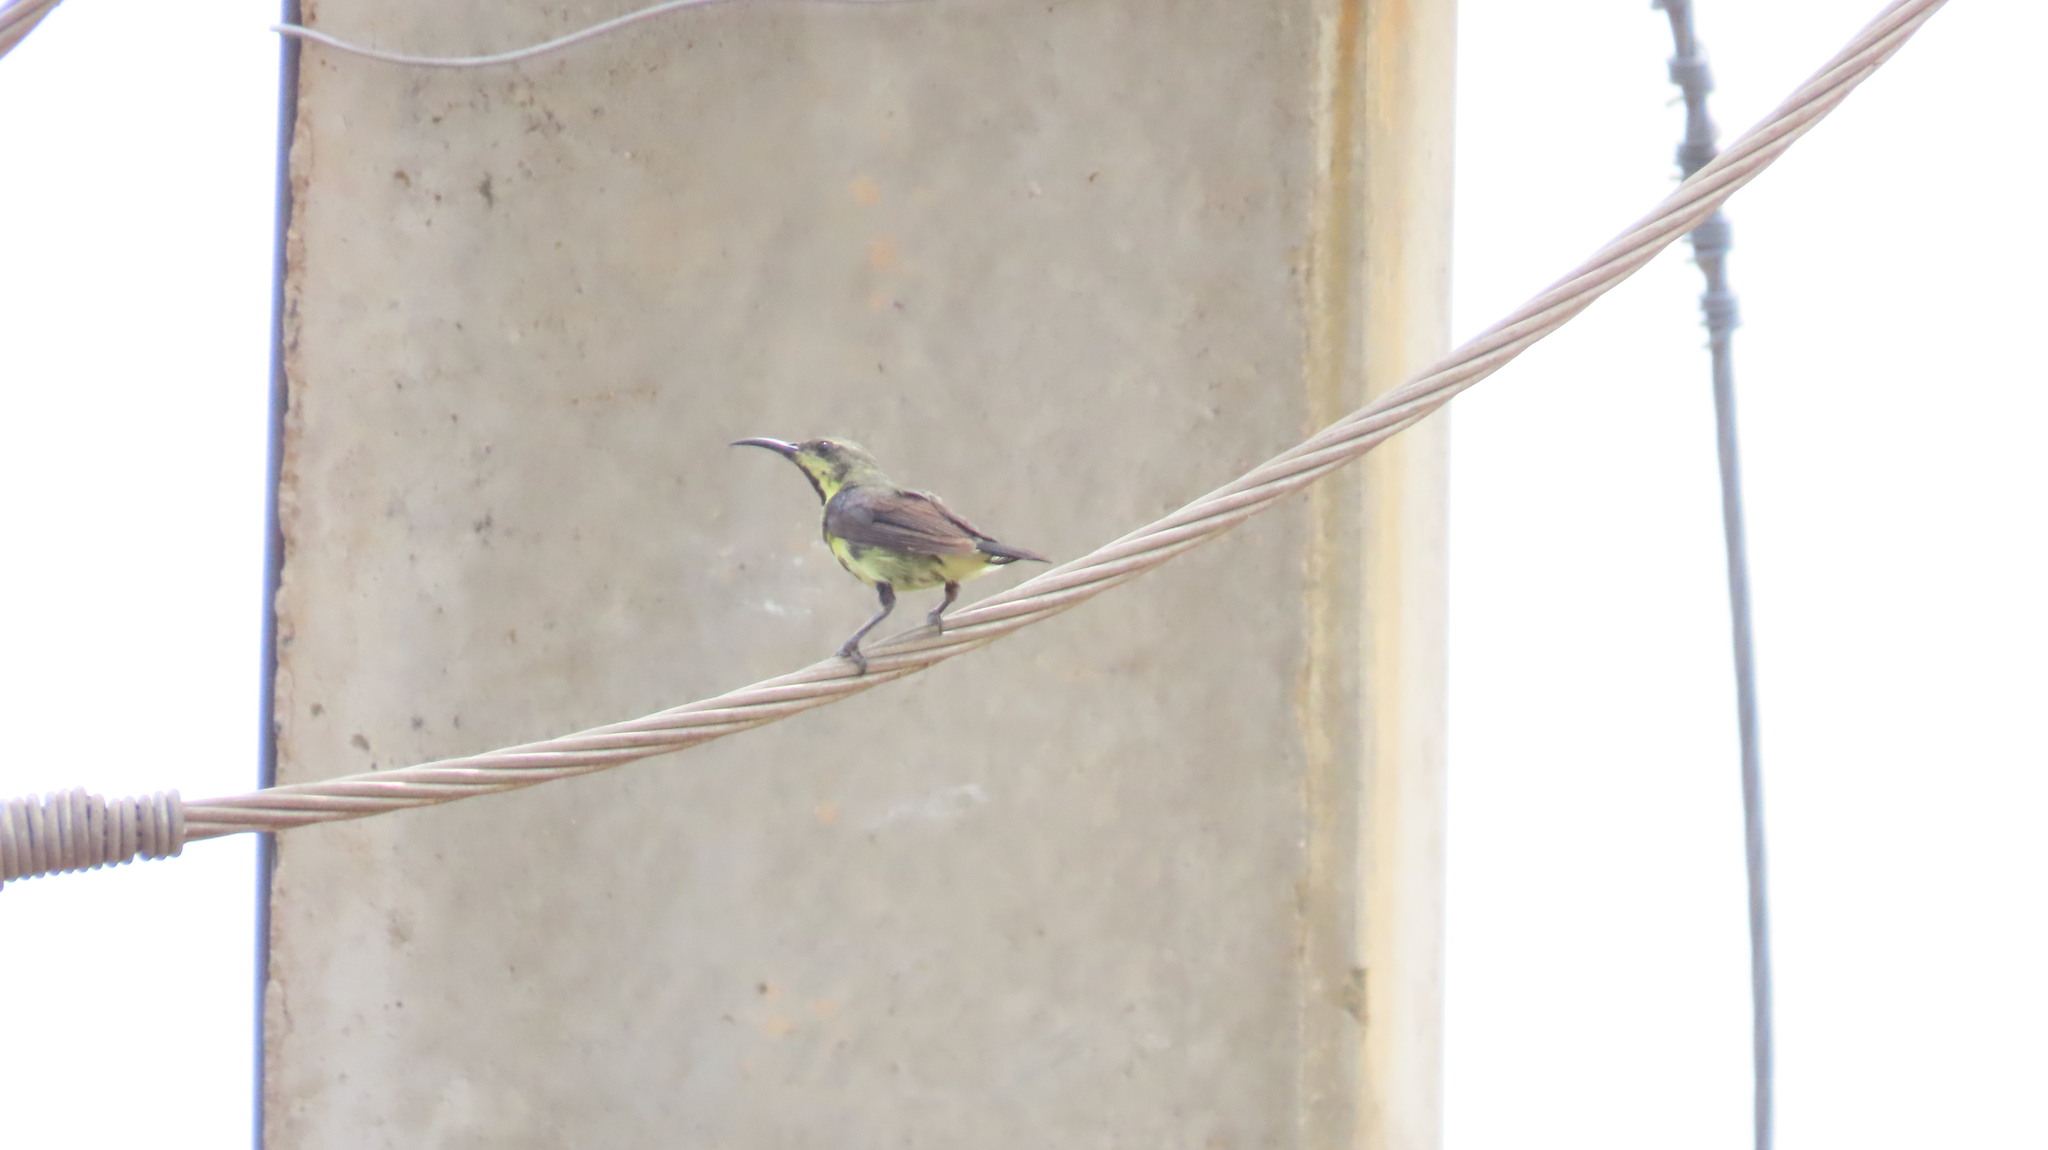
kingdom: Animalia
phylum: Chordata
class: Aves
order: Passeriformes
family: Nectariniidae
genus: Cinnyris
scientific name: Cinnyris asiaticus
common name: Purple sunbird
